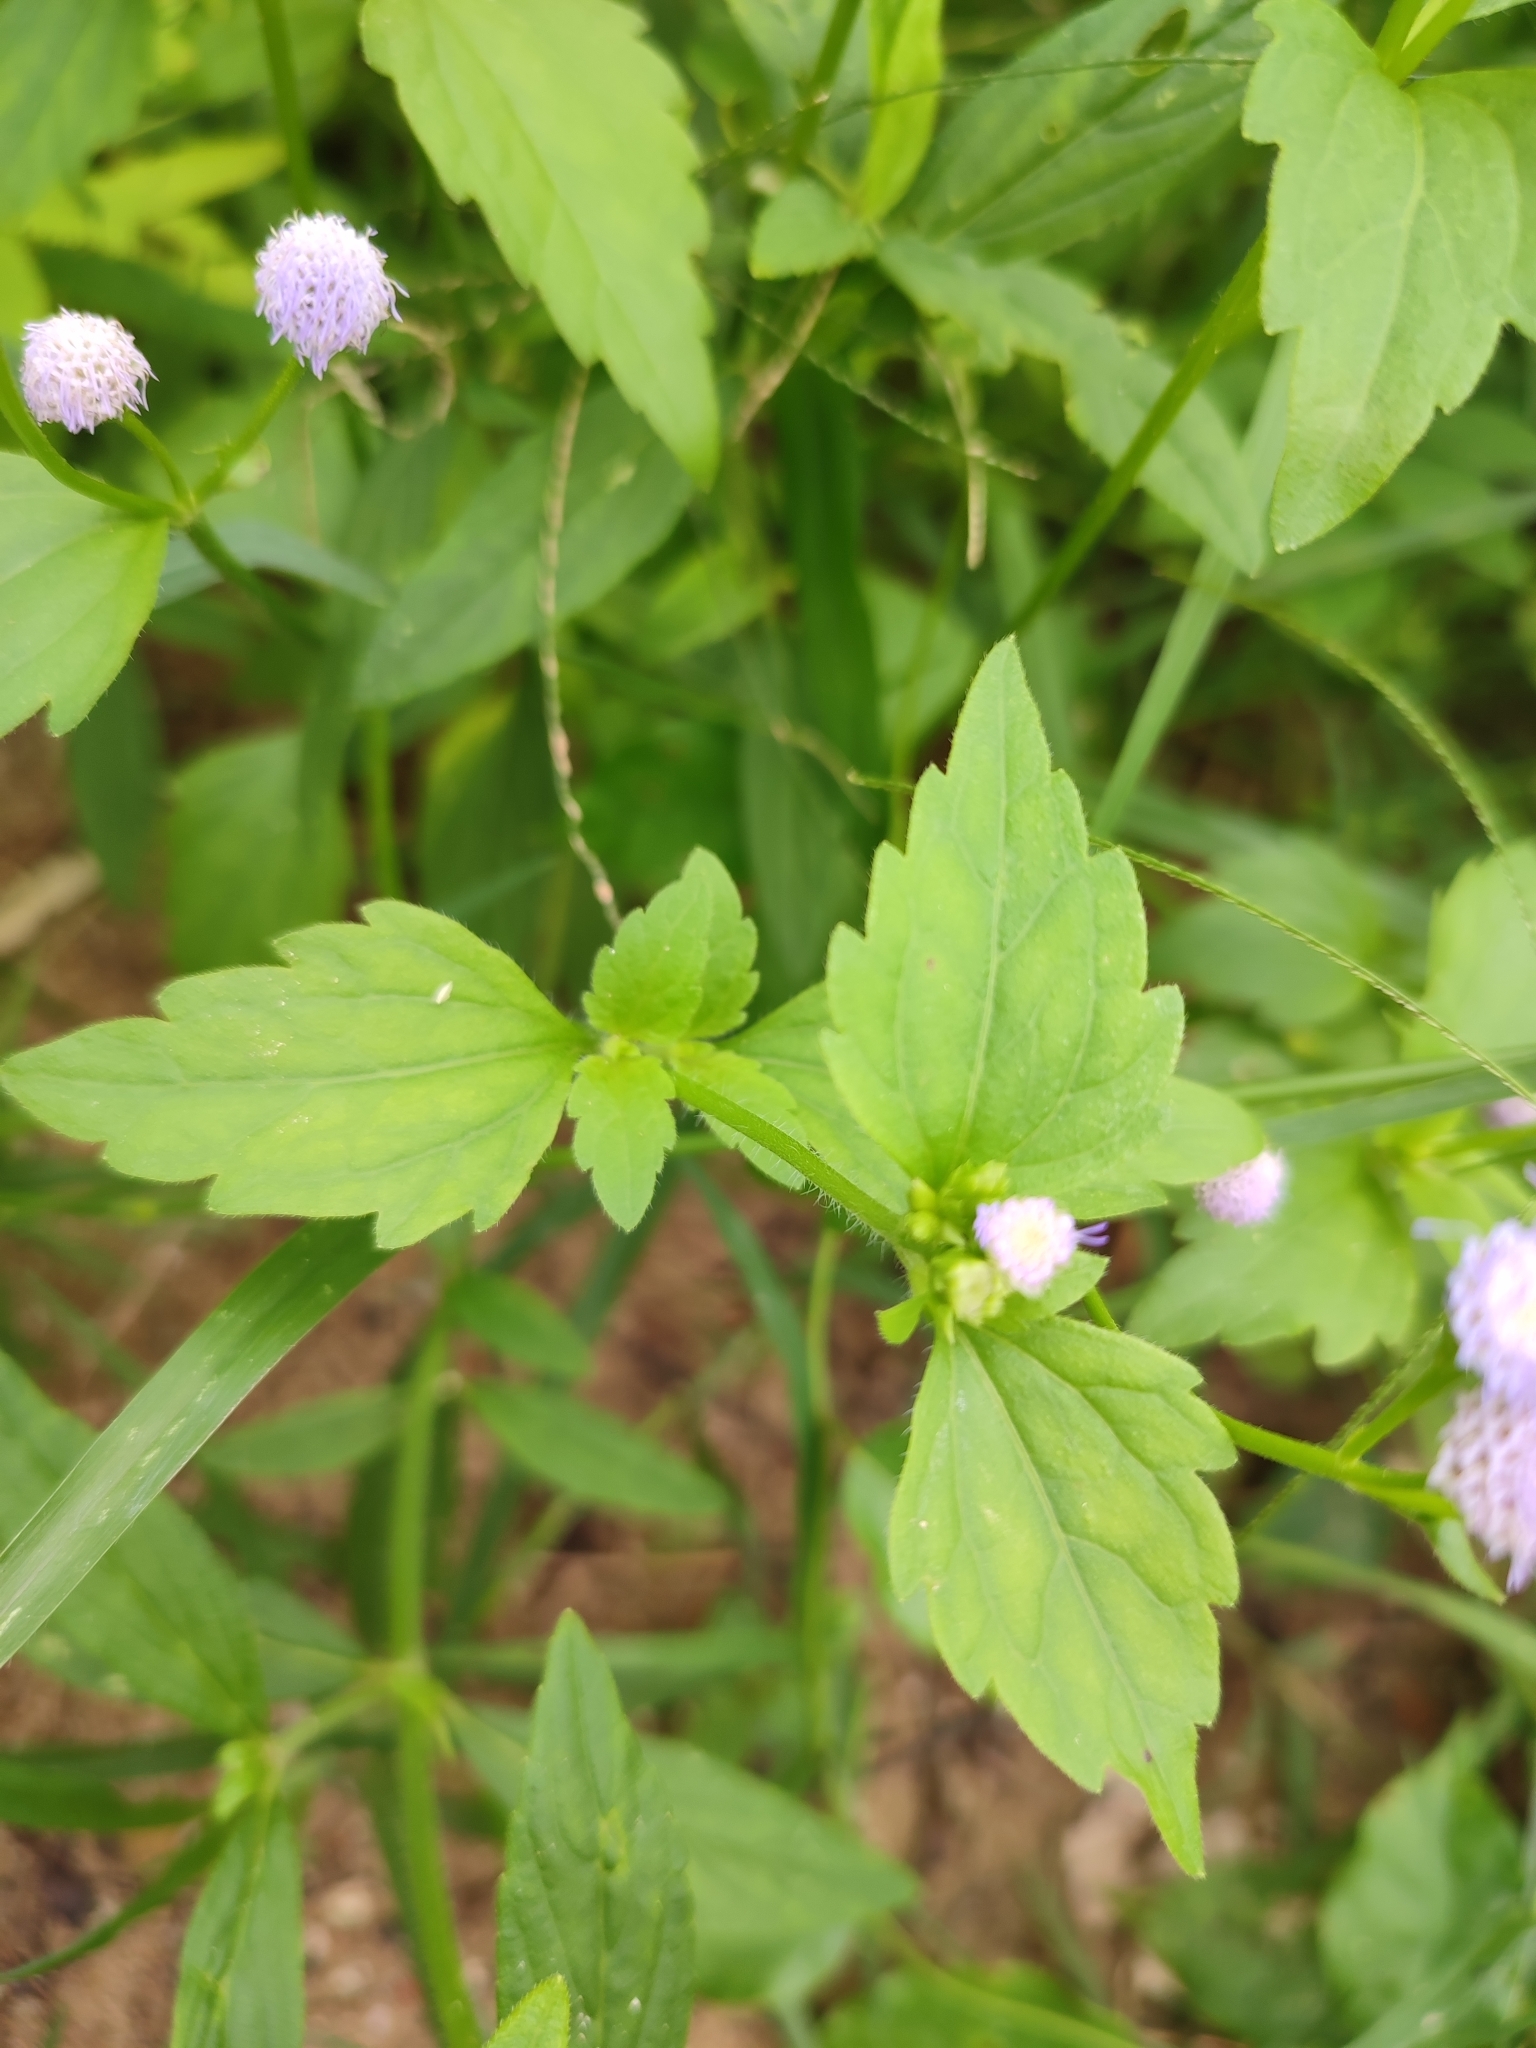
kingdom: Plantae
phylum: Tracheophyta
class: Magnoliopsida
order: Asterales
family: Asteraceae
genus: Praxelis
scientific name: Praxelis clematidea
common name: Praxelis
